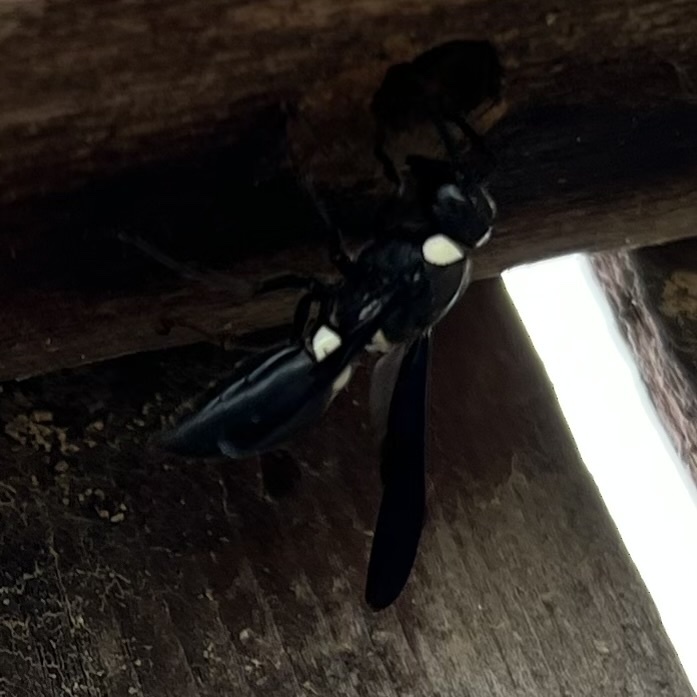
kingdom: Animalia
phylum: Arthropoda
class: Insecta
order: Hymenoptera
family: Eumenidae
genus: Monobia
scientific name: Monobia quadridens
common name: Four-toothed mason wasp
